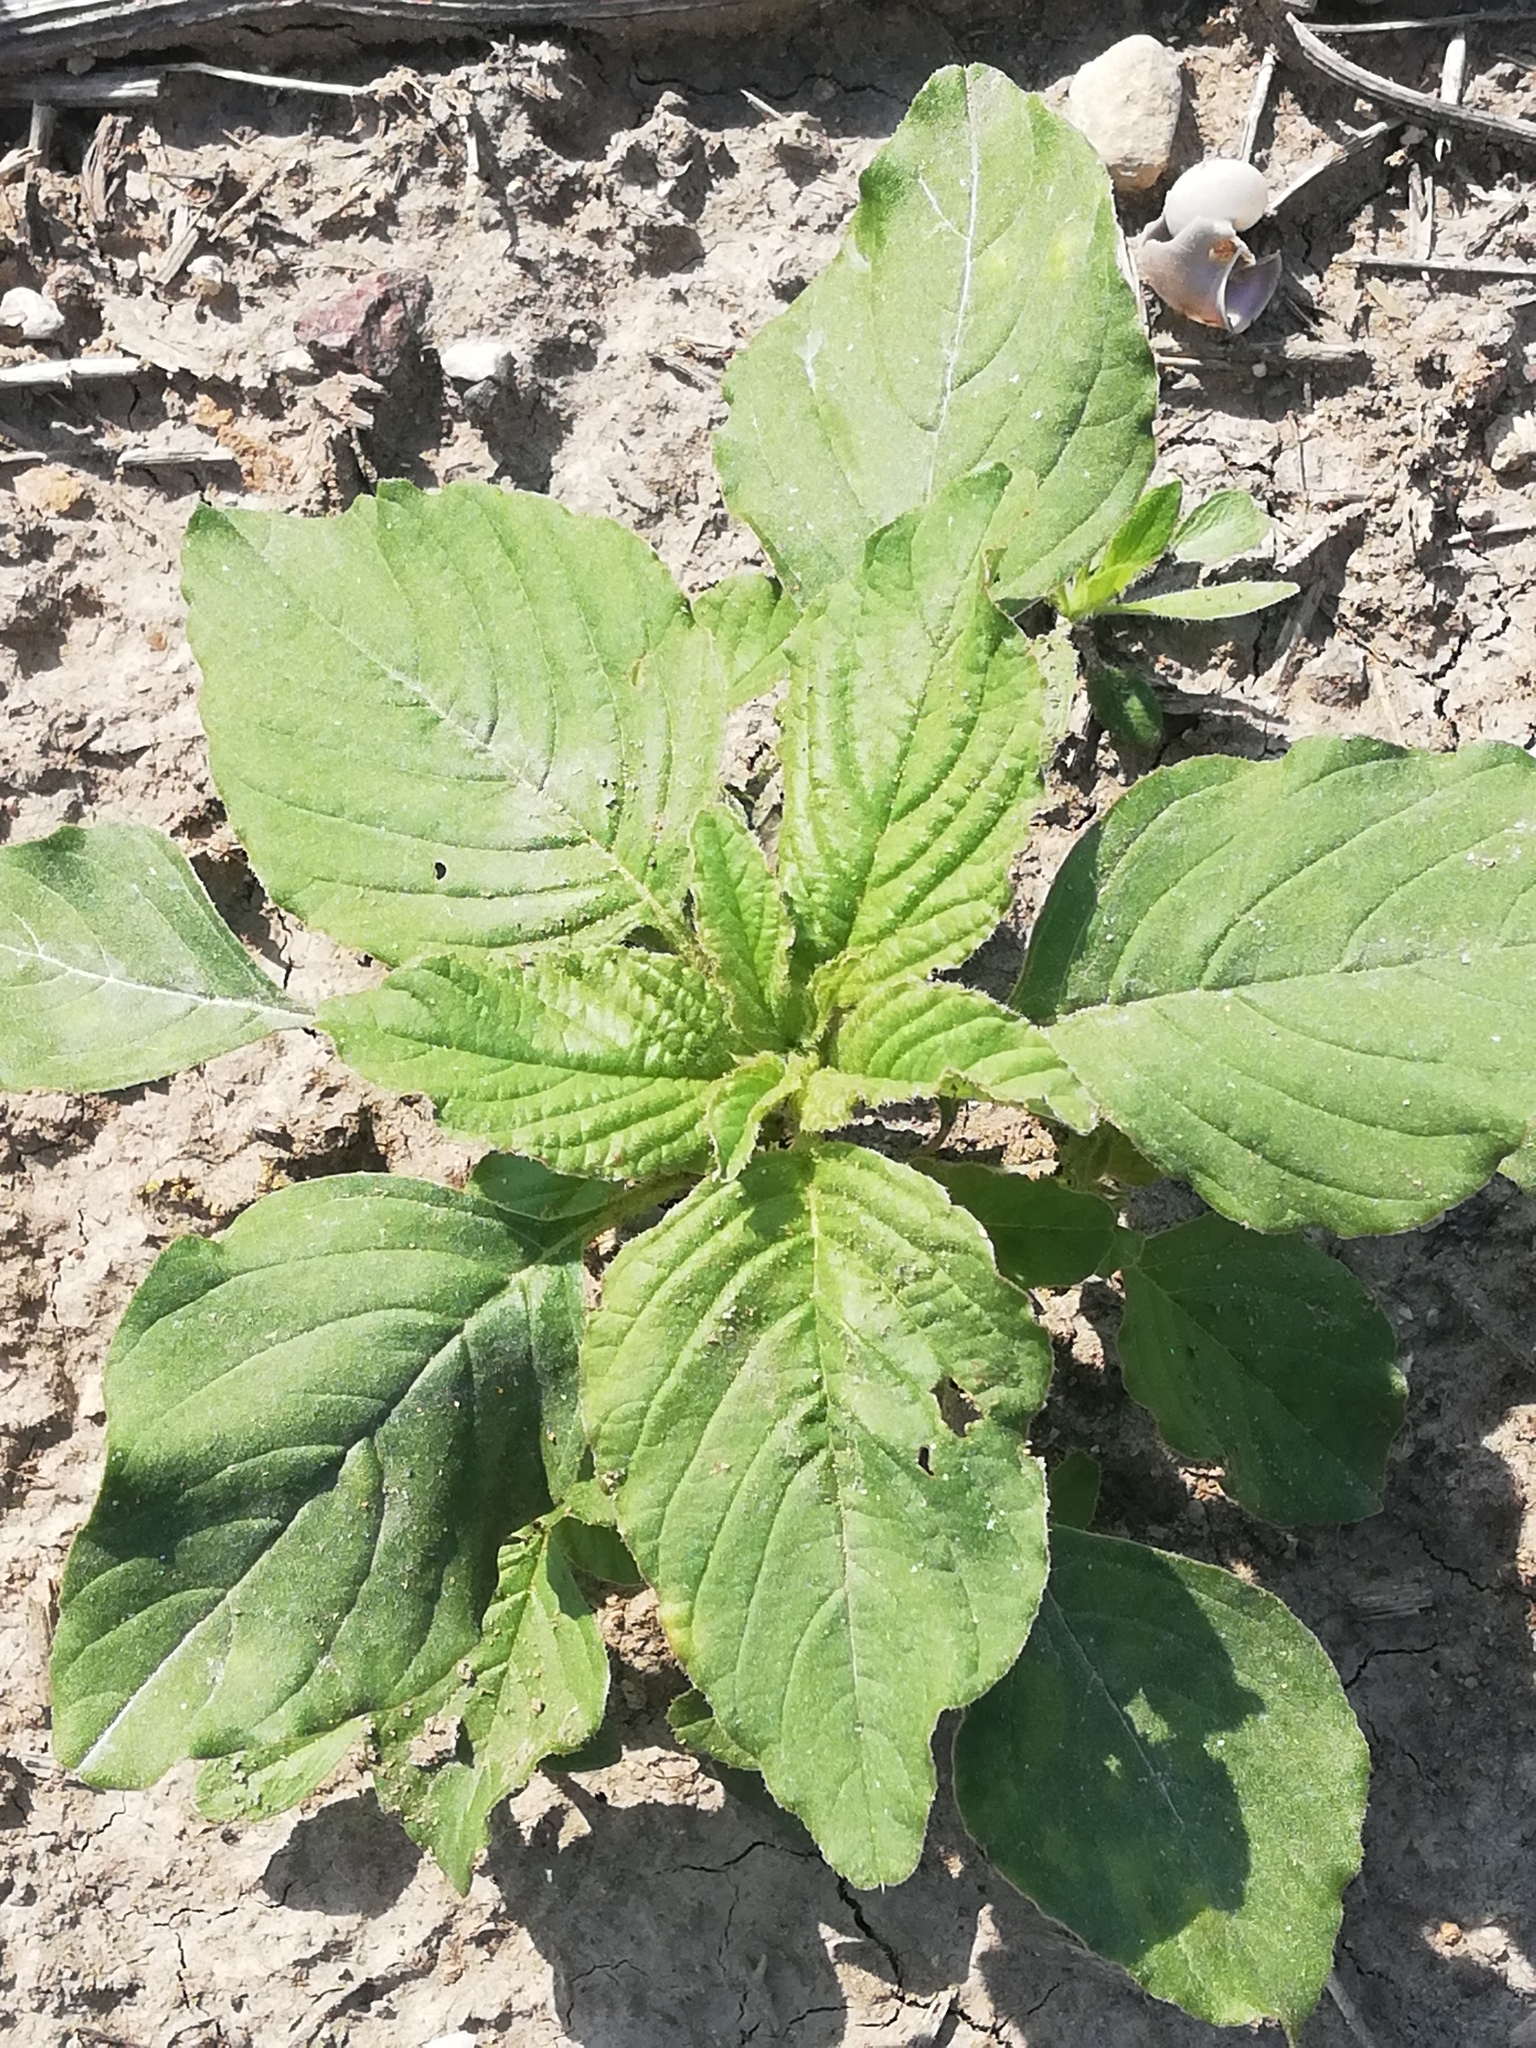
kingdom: Plantae
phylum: Tracheophyta
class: Magnoliopsida
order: Caryophyllales
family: Amaranthaceae
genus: Amaranthus
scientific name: Amaranthus retroflexus
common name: Redroot amaranth
